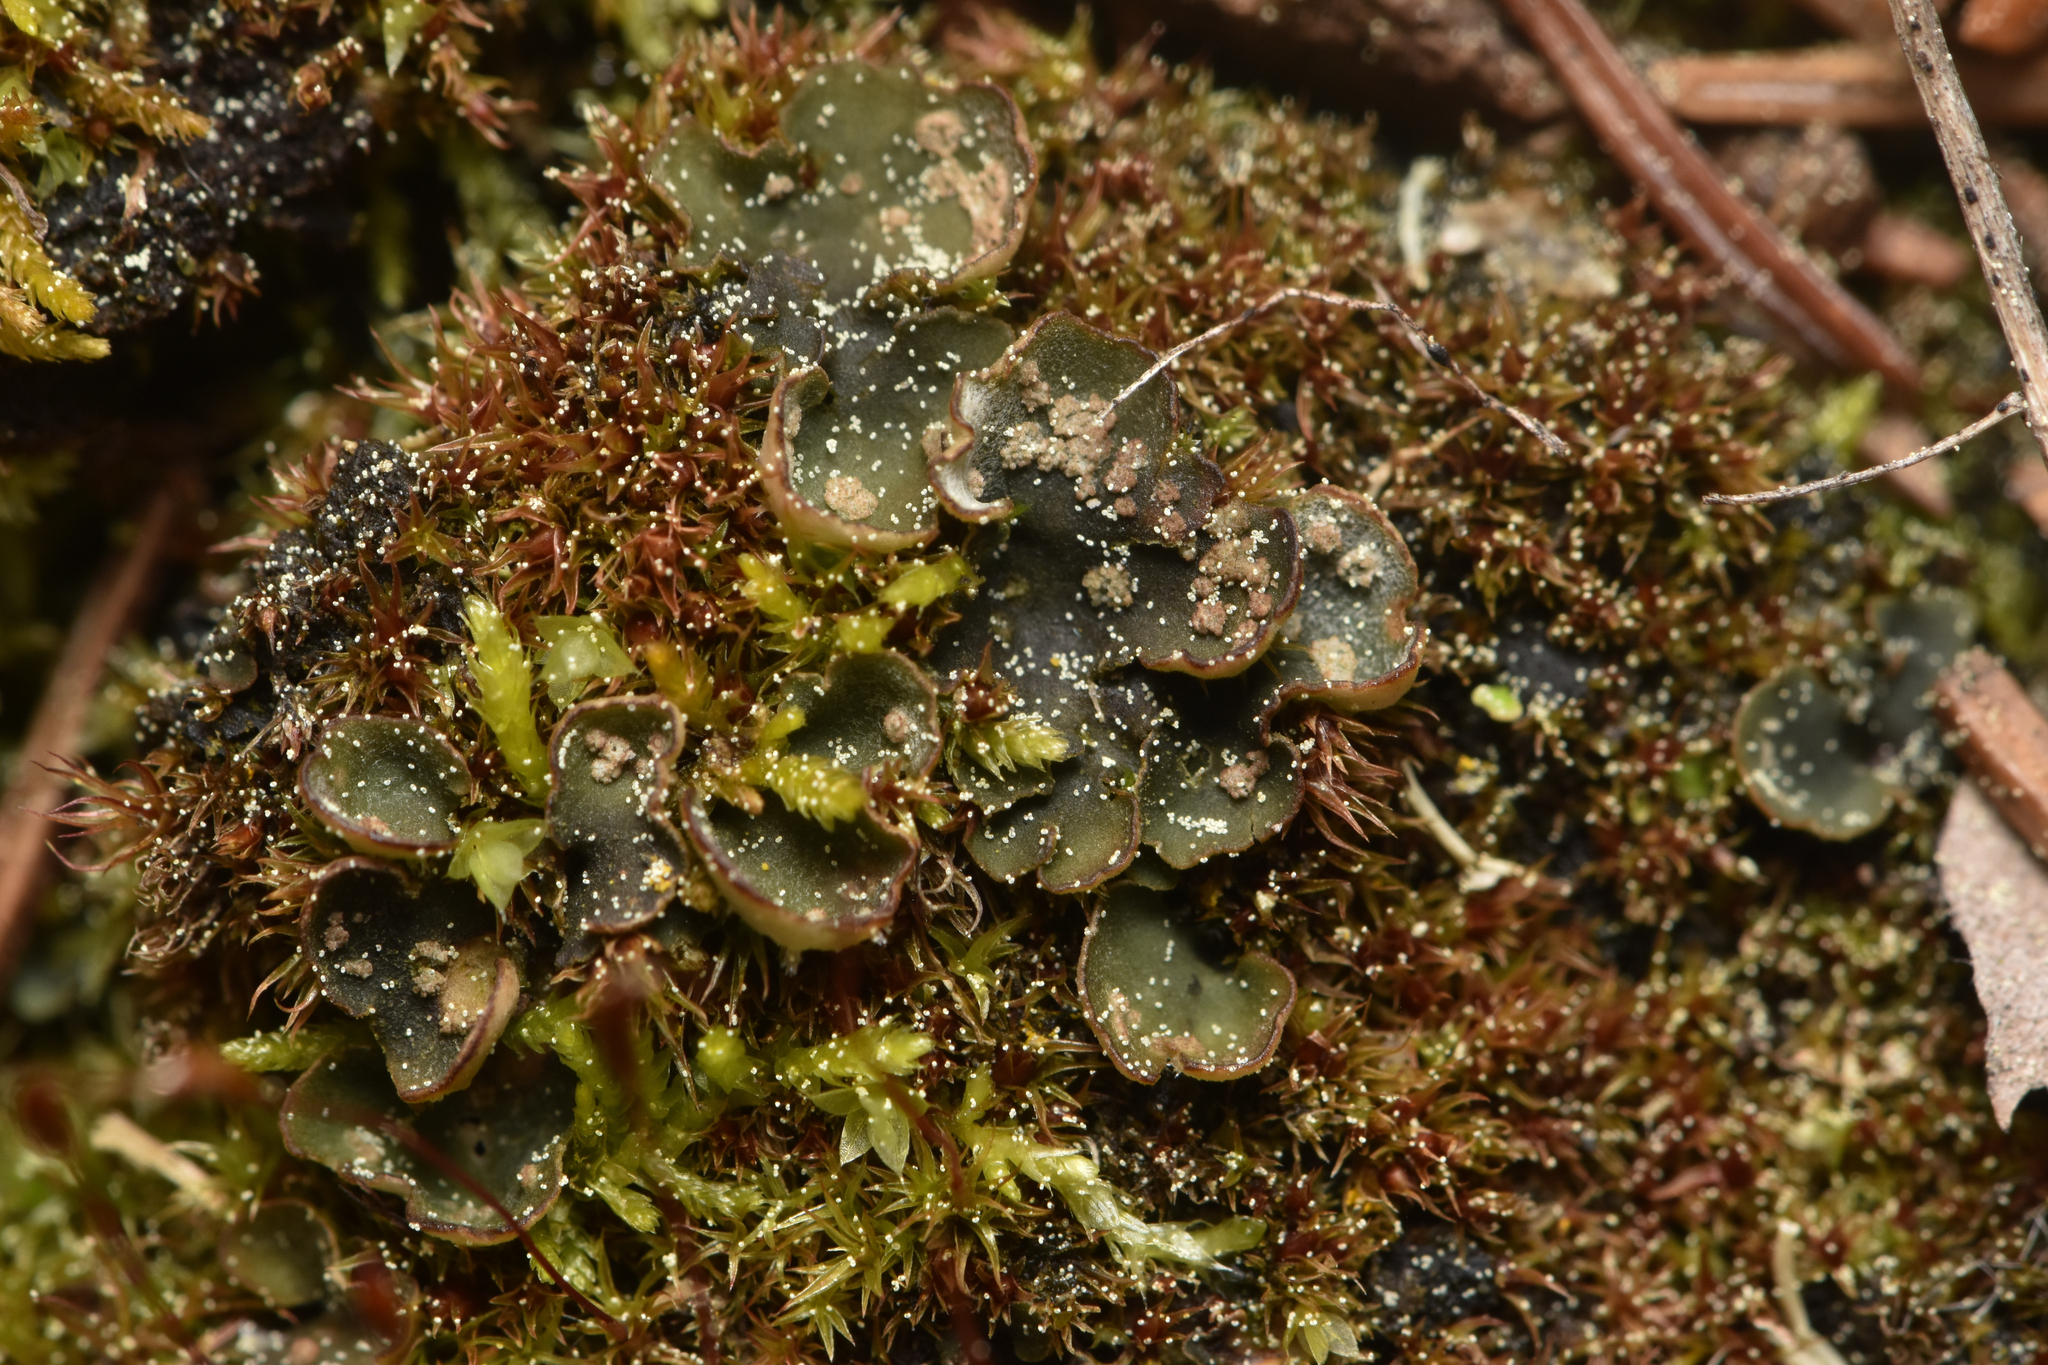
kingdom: Fungi
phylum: Ascomycota
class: Lecanoromycetes
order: Peltigerales
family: Peltigeraceae
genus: Peltigera
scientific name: Peltigera didactyla
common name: Alternating dog lichen
